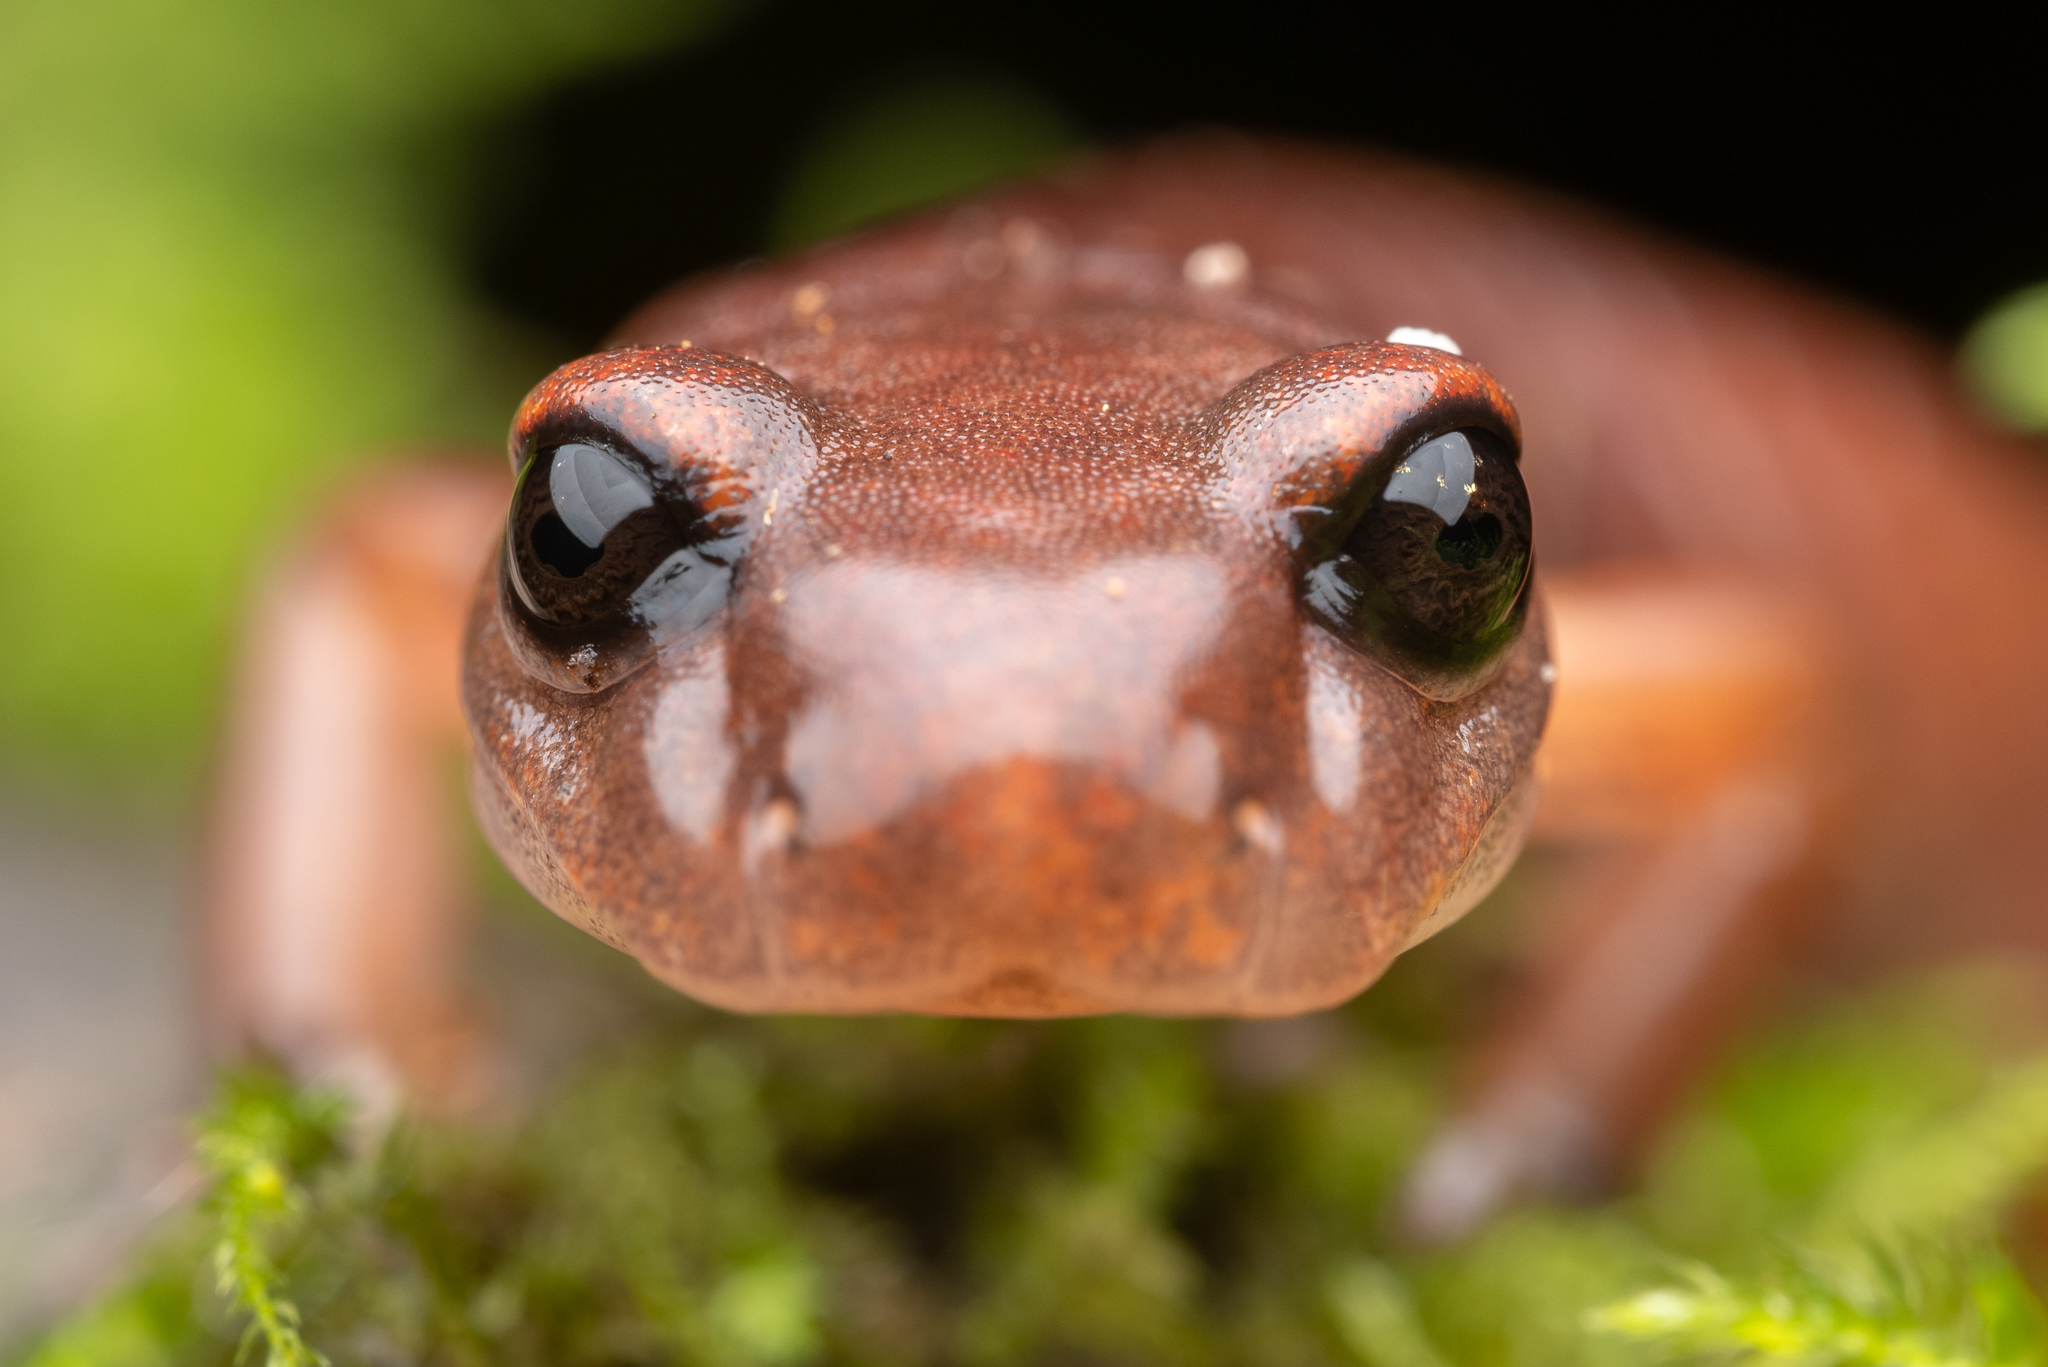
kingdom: Animalia
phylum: Chordata
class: Amphibia
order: Caudata
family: Plethodontidae
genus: Ensatina
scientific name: Ensatina eschscholtzii
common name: Ensatina
